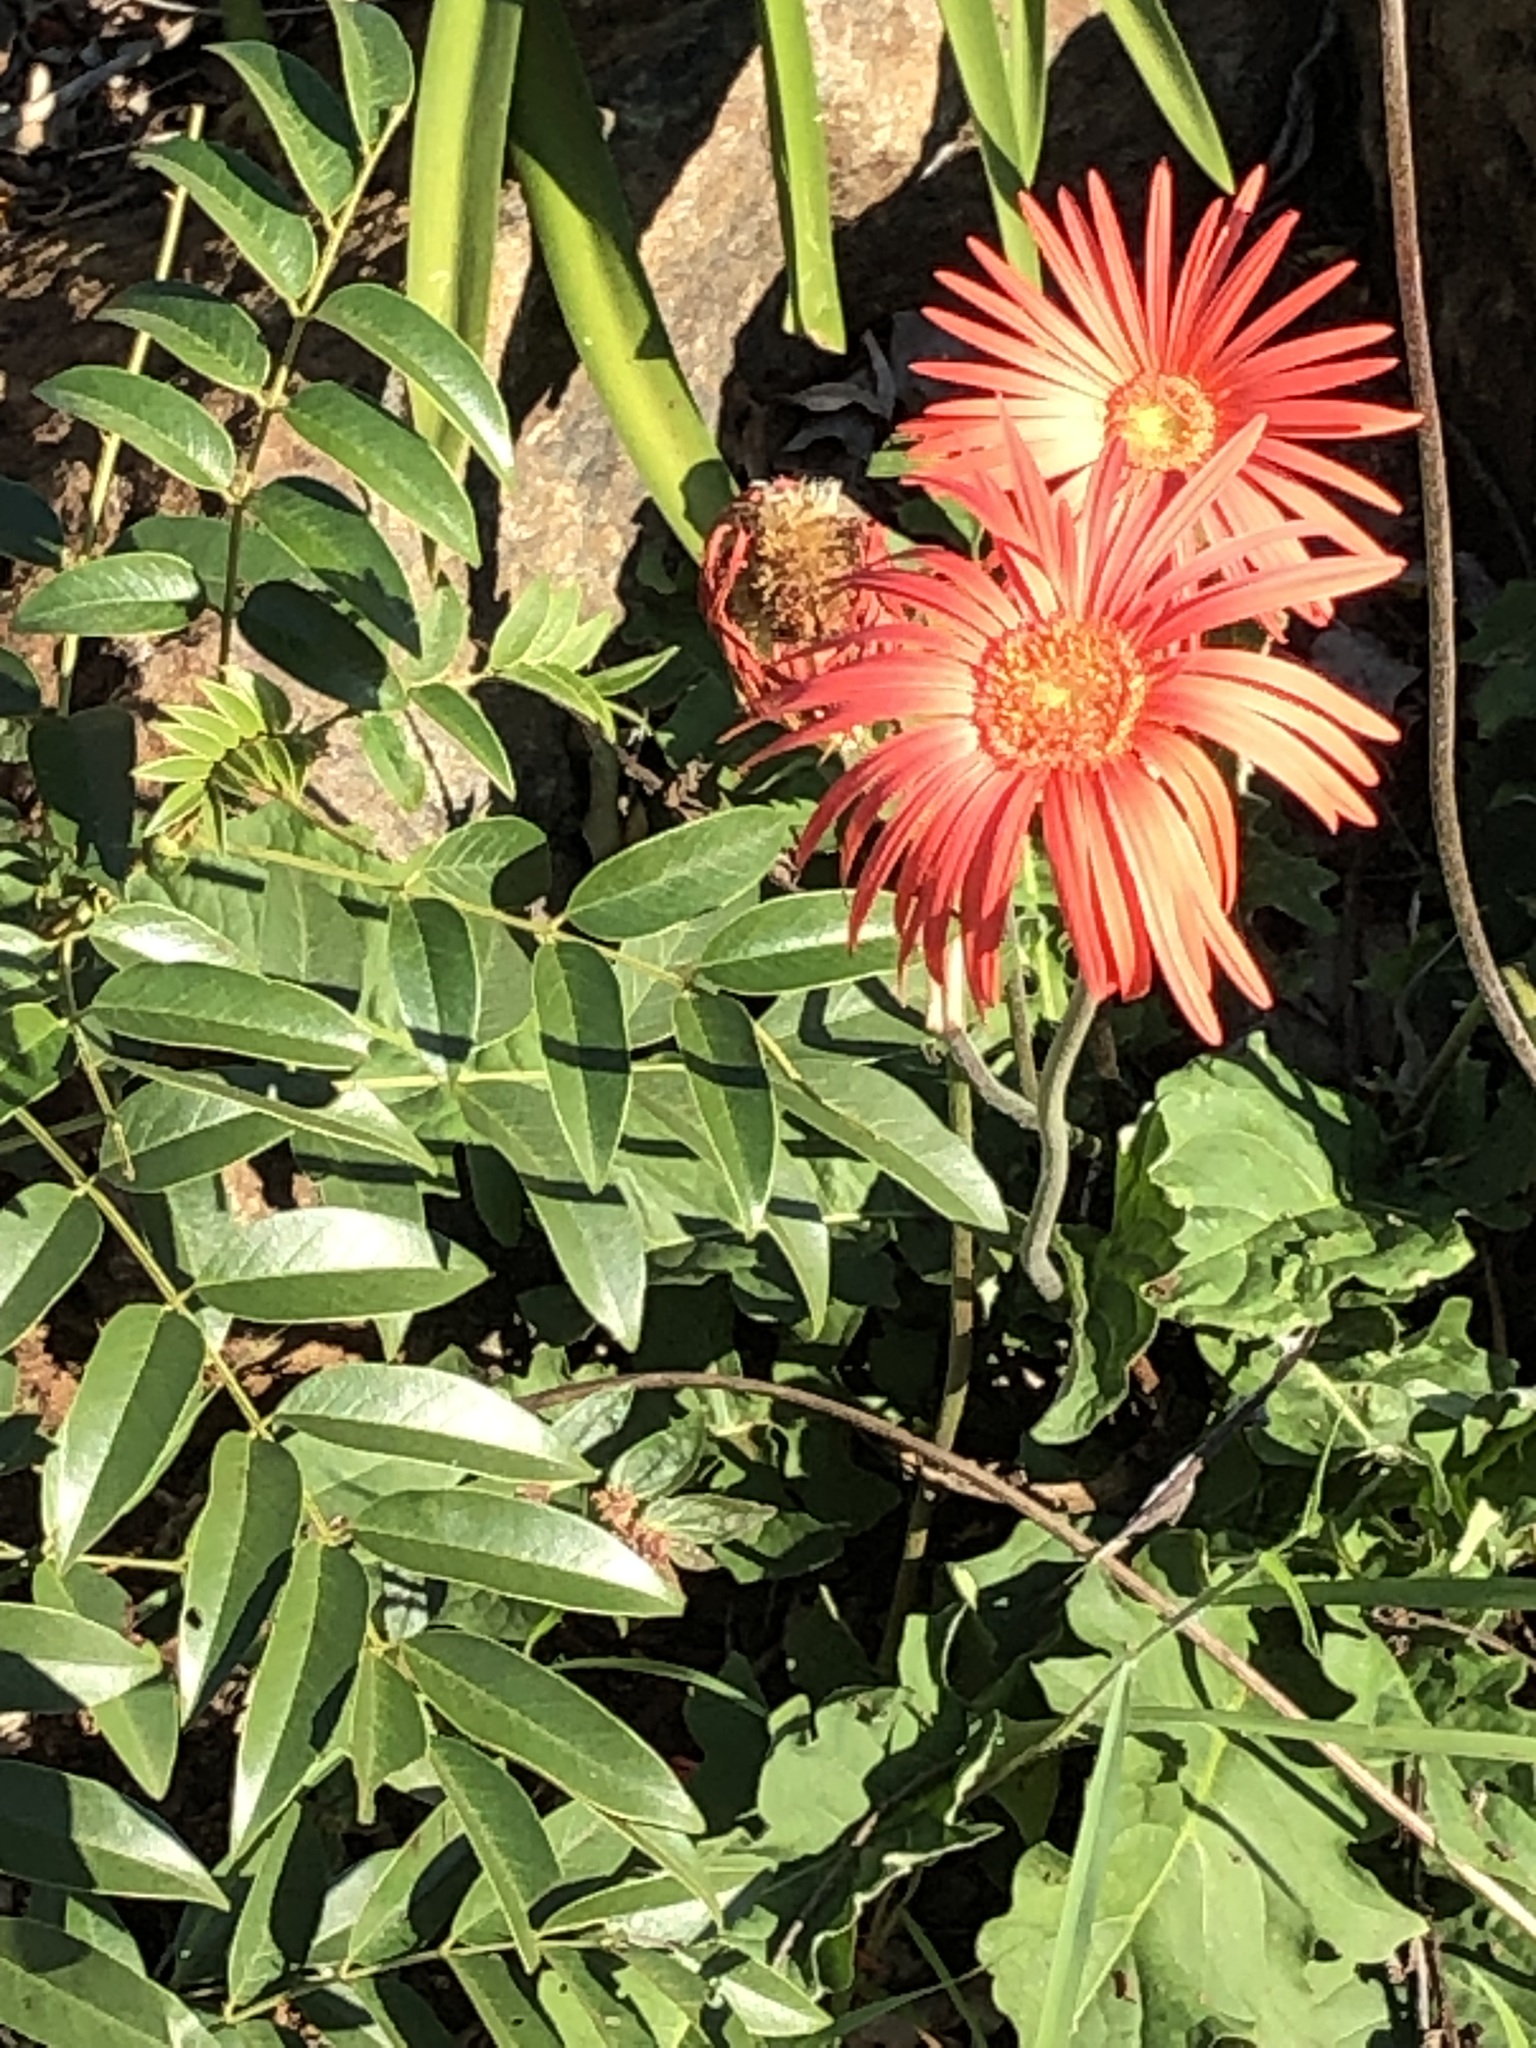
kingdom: Plantae
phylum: Tracheophyta
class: Magnoliopsida
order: Asterales
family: Asteraceae
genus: Gerbera
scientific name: Gerbera jamesonii
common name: African daisy
